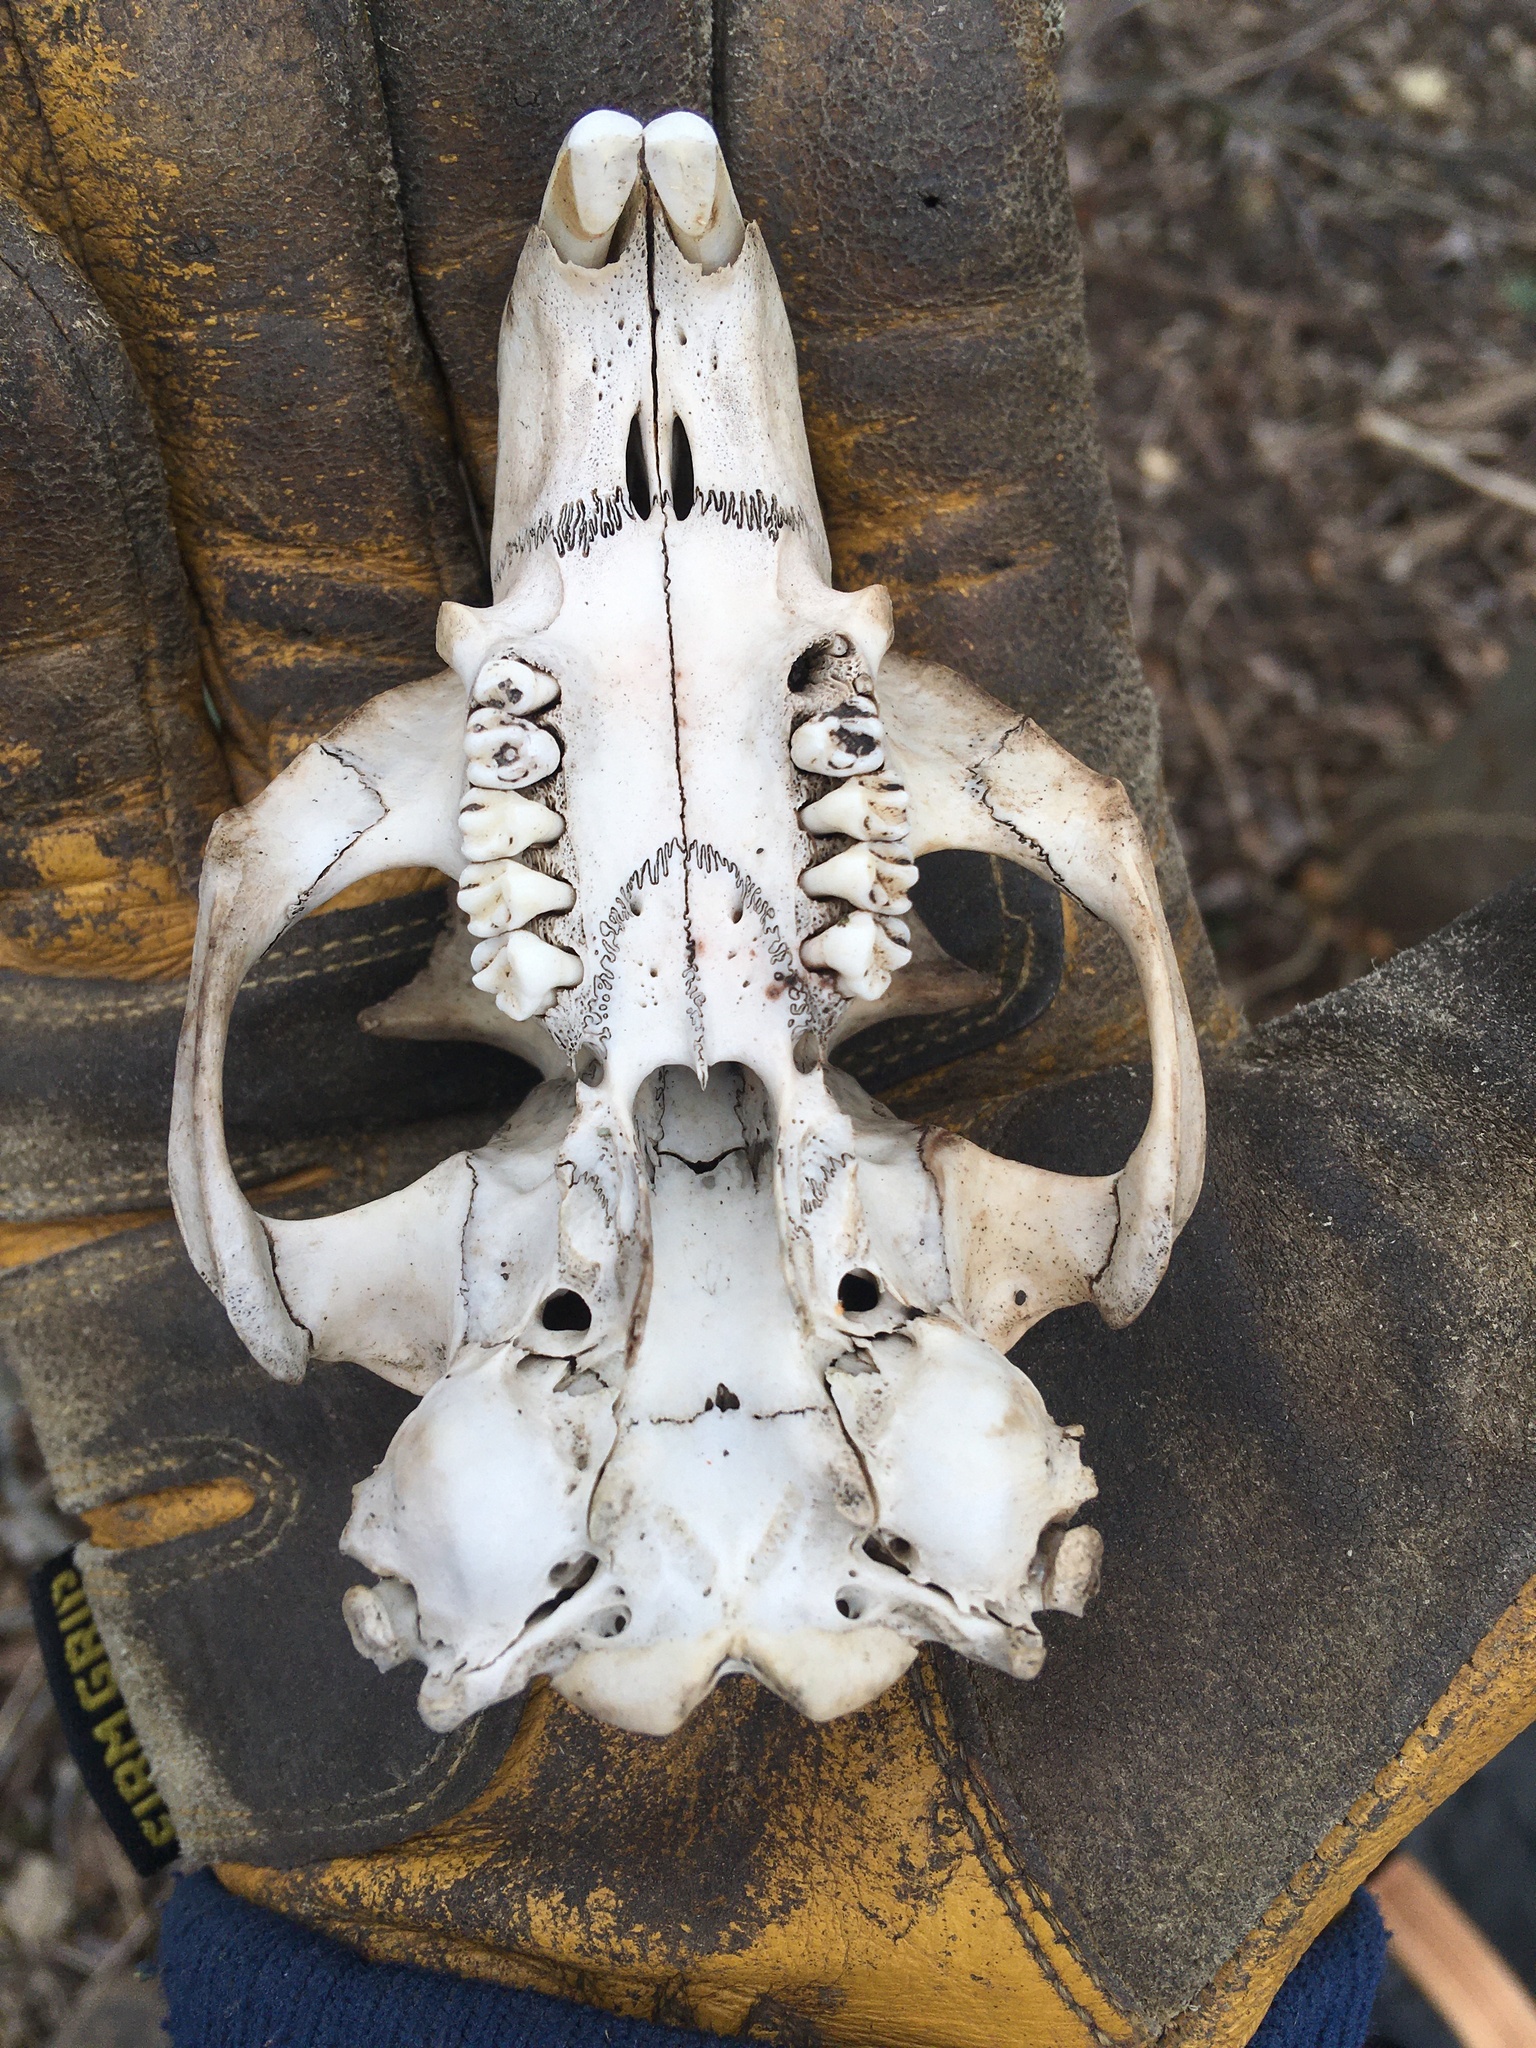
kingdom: Animalia
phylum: Chordata
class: Mammalia
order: Rodentia
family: Sciuridae
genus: Marmota
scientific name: Marmota monax
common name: Groundhog
